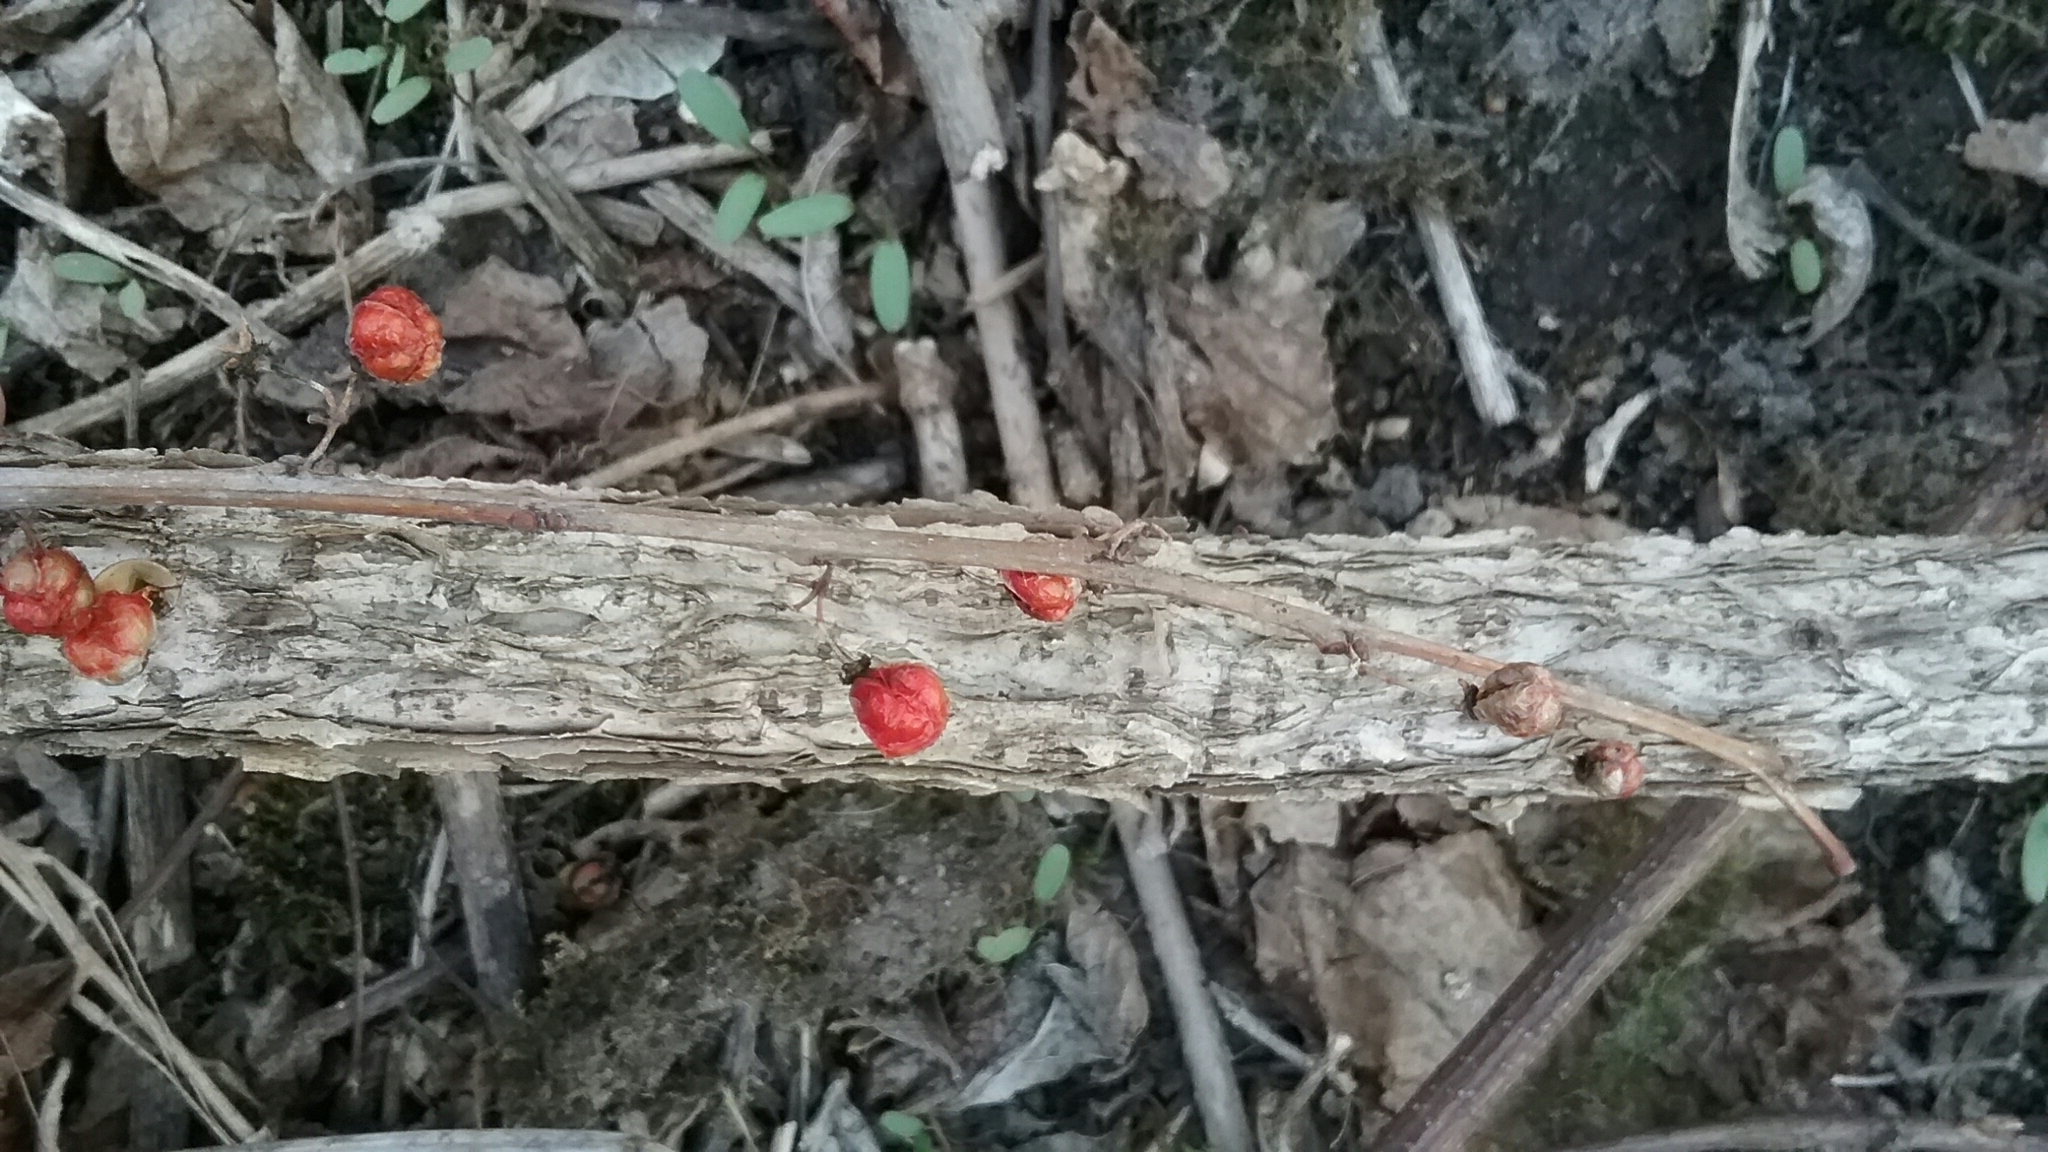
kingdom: Plantae
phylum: Tracheophyta
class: Magnoliopsida
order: Celastrales
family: Celastraceae
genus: Celastrus
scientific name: Celastrus orbiculatus
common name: Oriental bittersweet
